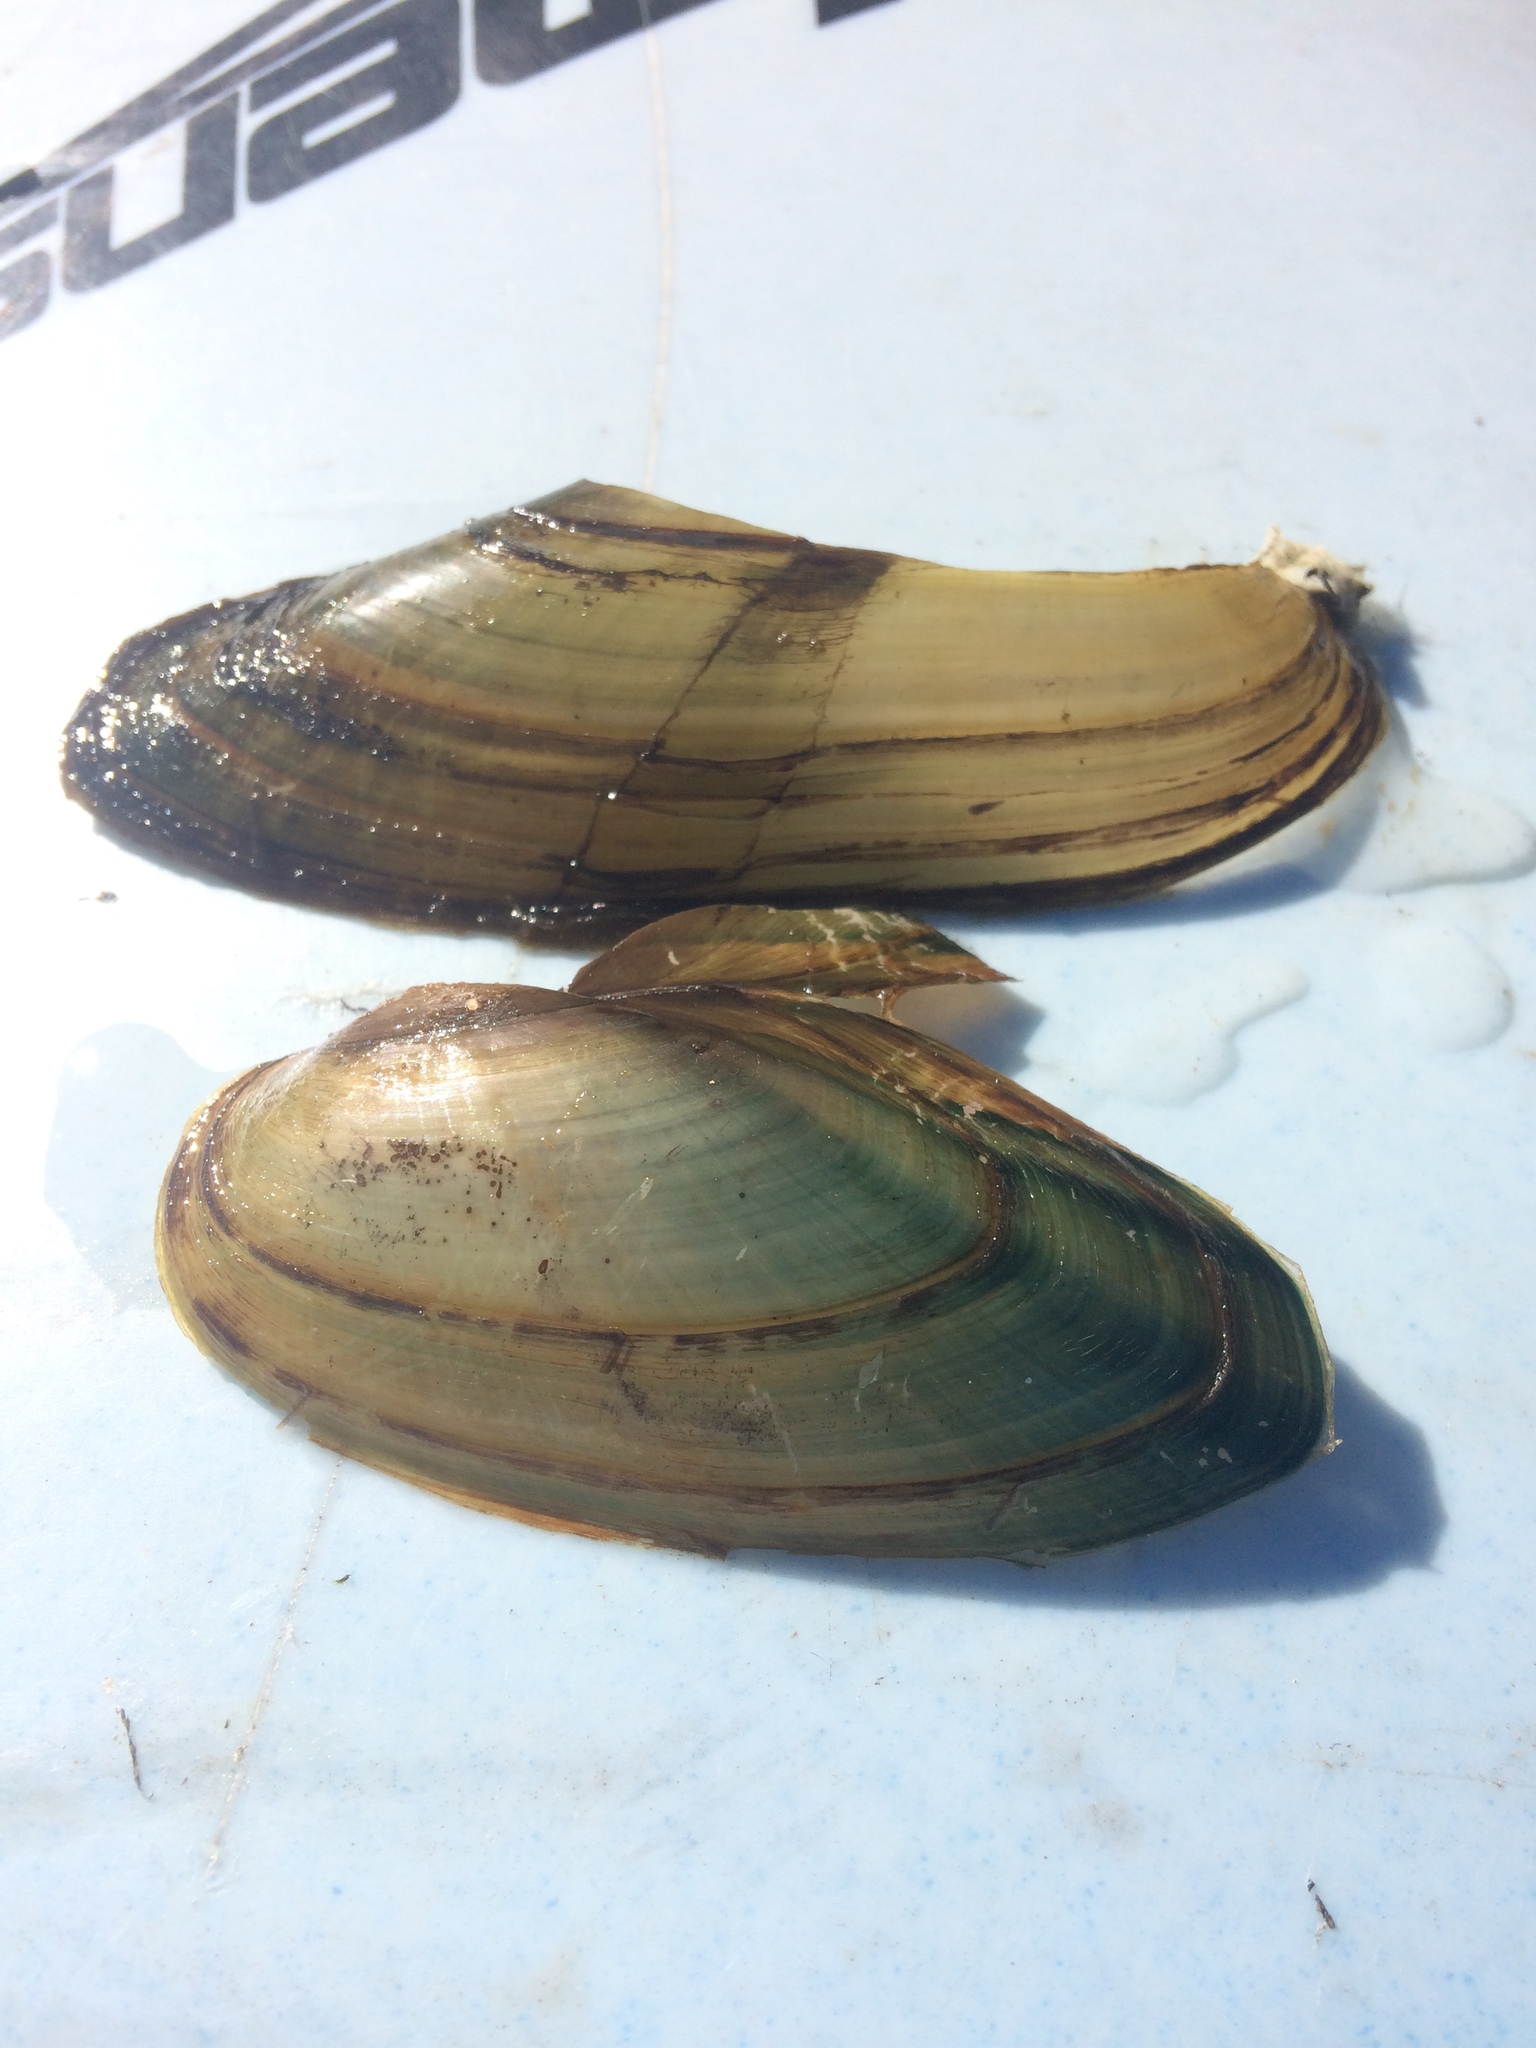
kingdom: Animalia
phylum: Mollusca
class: Bivalvia
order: Unionida
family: Unionidae
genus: Pyganodon
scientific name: Pyganodon cataracta
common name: Eastern floater
